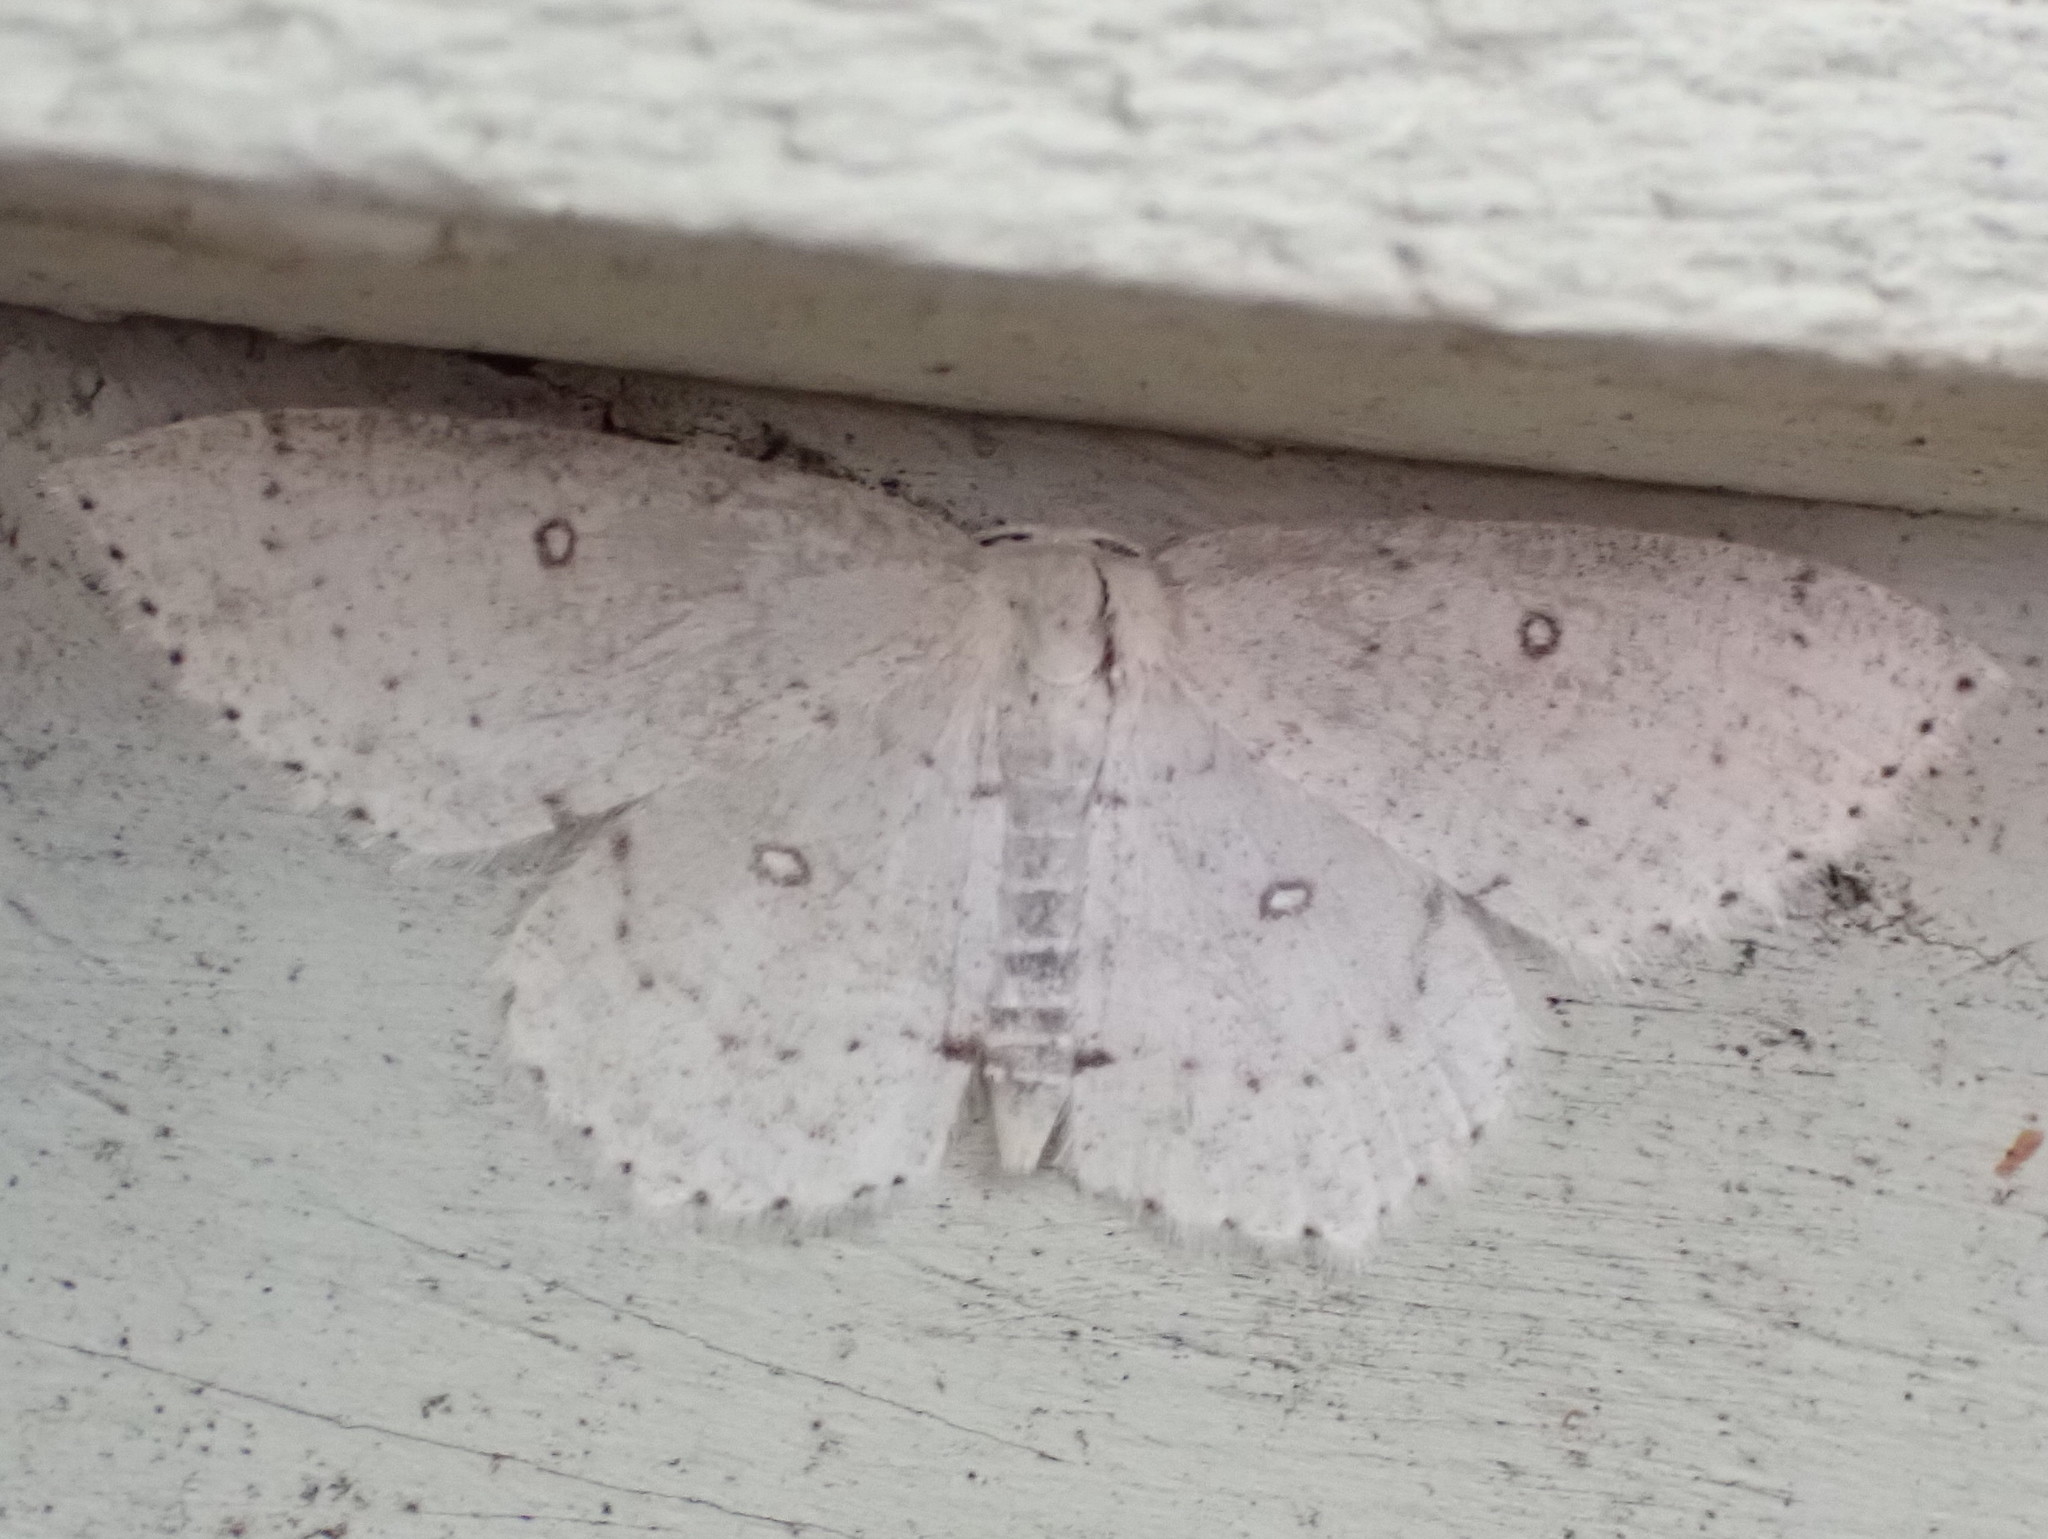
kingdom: Animalia
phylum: Arthropoda
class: Insecta
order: Lepidoptera
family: Geometridae
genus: Cyclophora
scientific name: Cyclophora pendulinaria
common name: Sweet fern geometer
